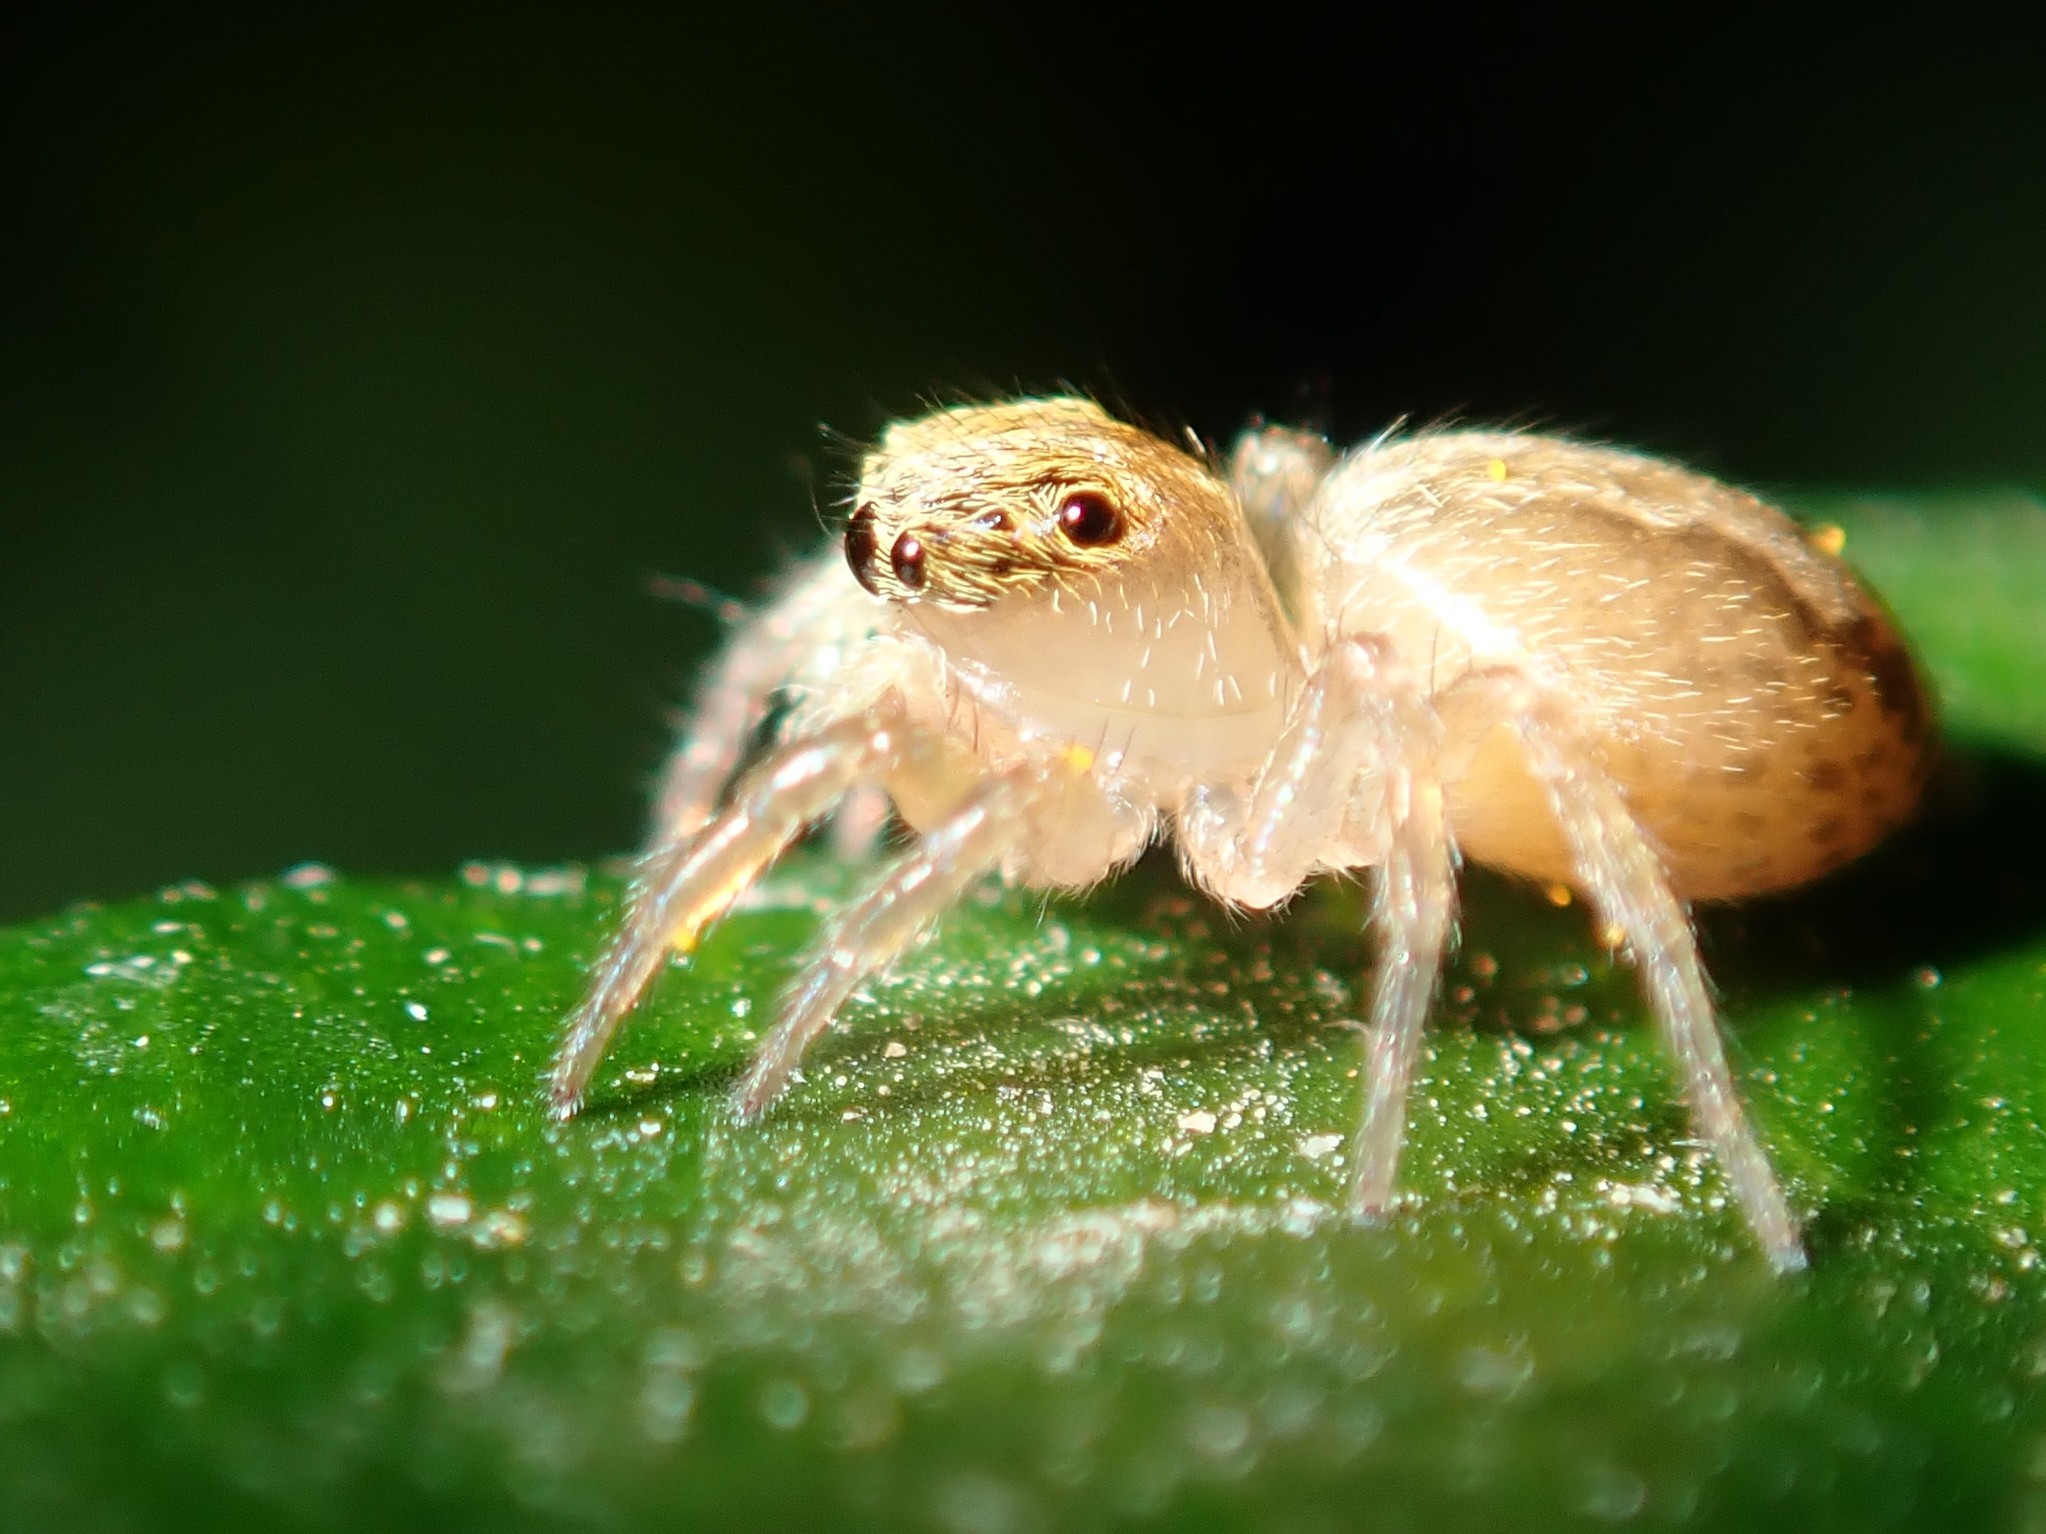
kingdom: Animalia
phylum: Arthropoda
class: Arachnida
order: Araneae
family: Salticidae
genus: Saitis
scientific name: Saitis barbipes
